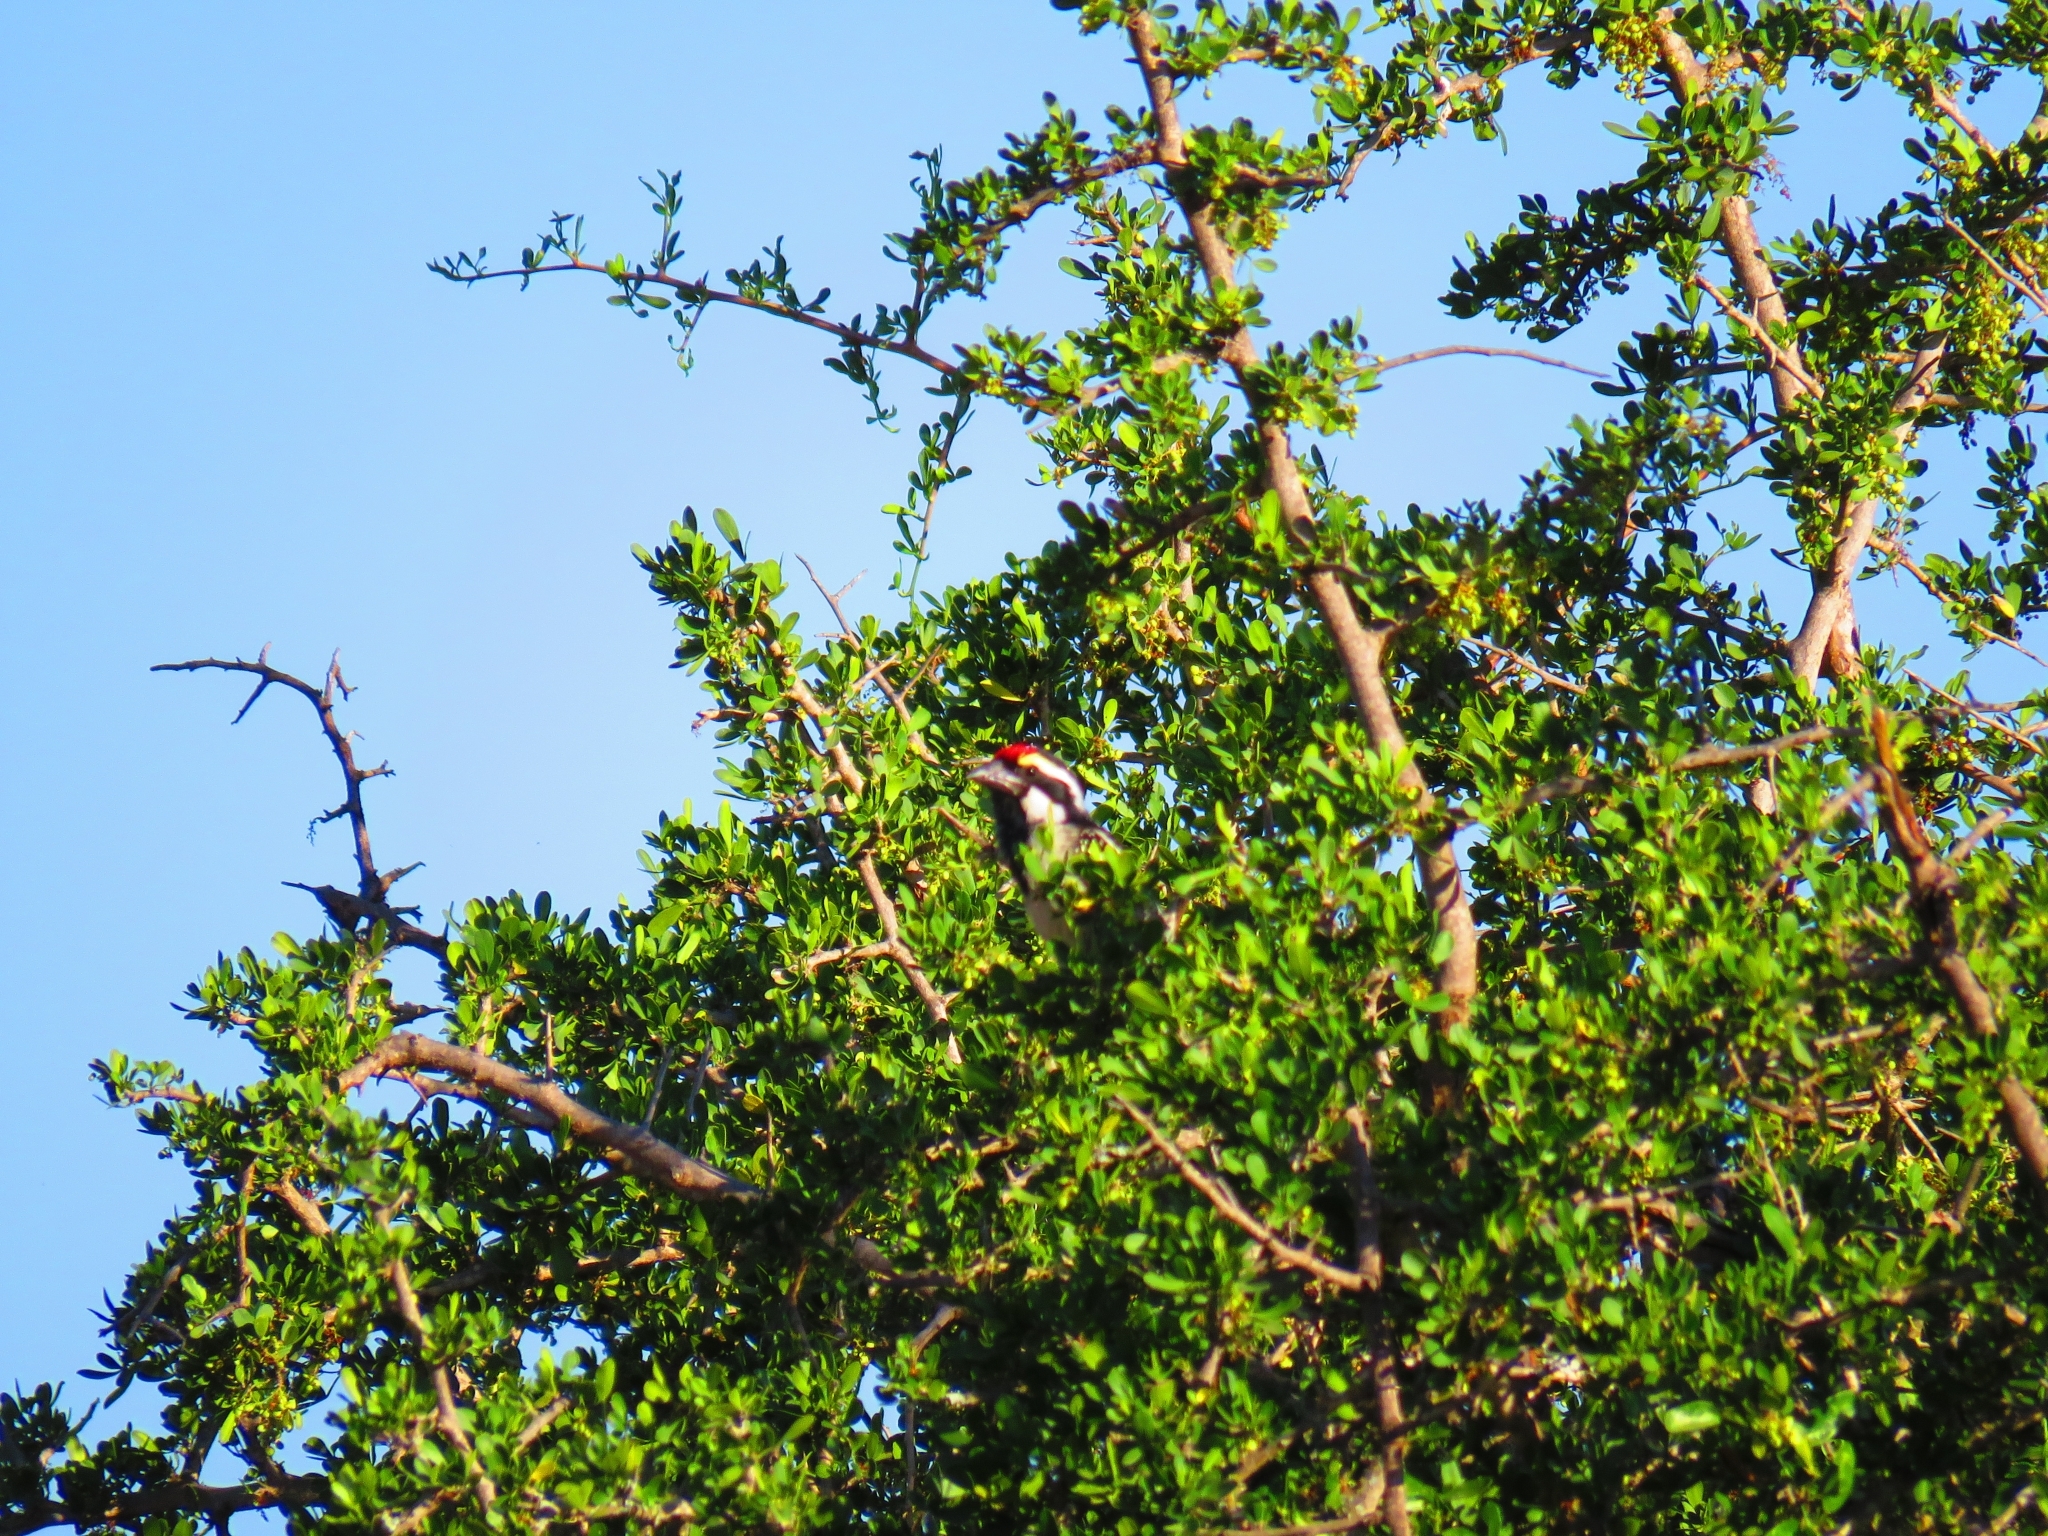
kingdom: Animalia
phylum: Chordata
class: Aves
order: Piciformes
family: Lybiidae
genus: Tricholaema
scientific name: Tricholaema leucomelas
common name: Acacia pied barbet
